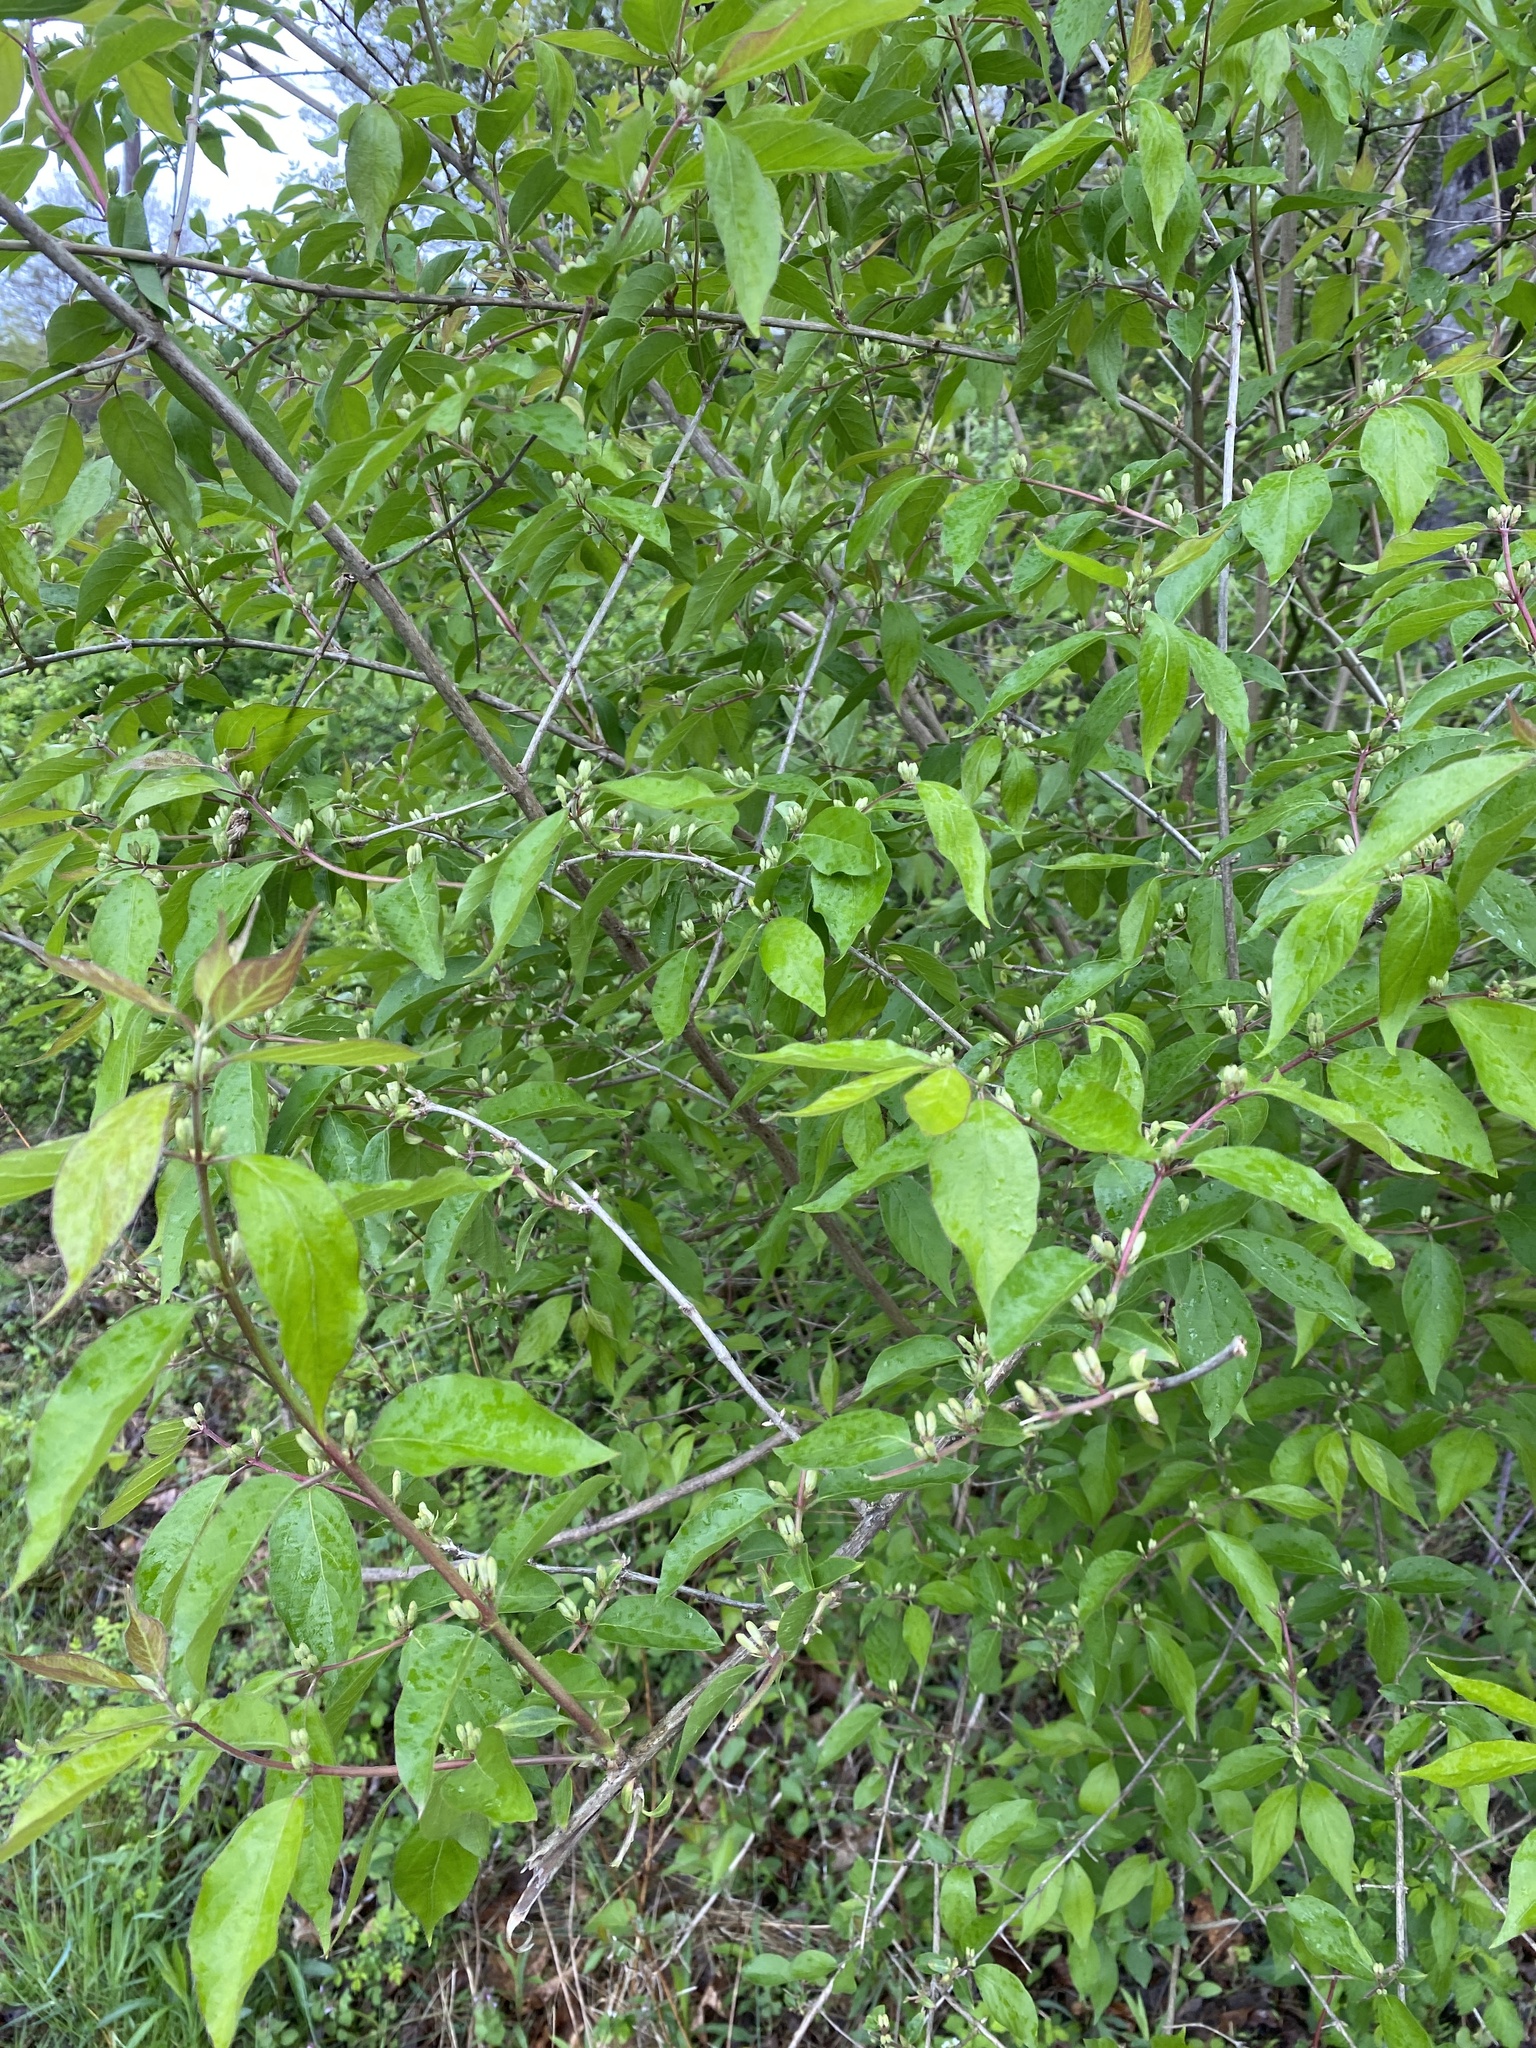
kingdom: Plantae
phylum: Tracheophyta
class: Magnoliopsida
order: Dipsacales
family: Caprifoliaceae
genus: Lonicera
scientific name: Lonicera maackii
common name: Amur honeysuckle
